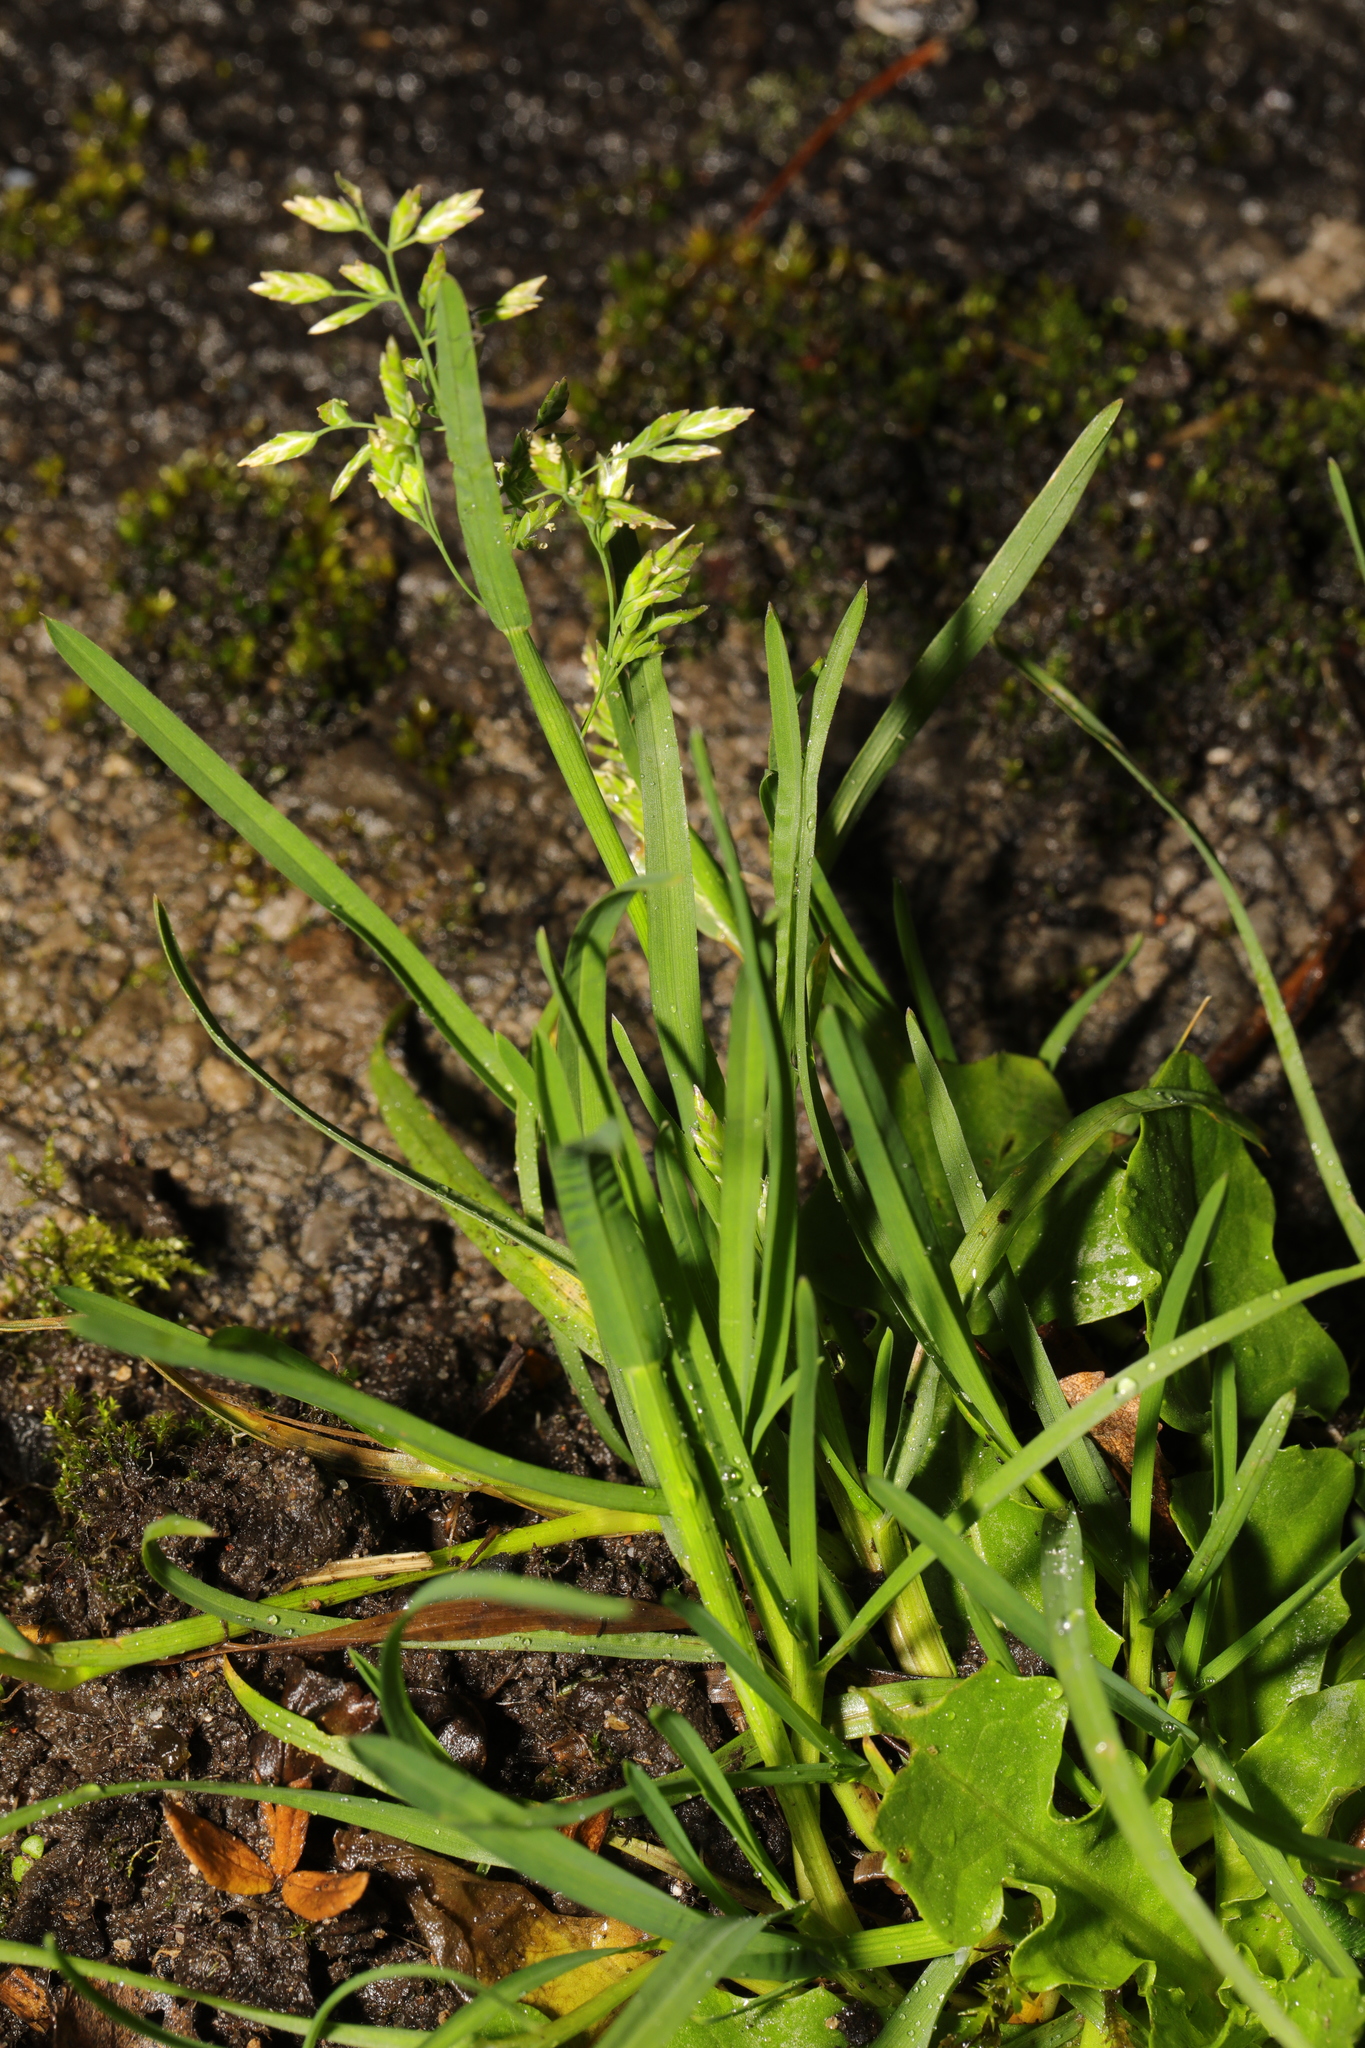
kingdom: Plantae
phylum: Tracheophyta
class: Liliopsida
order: Poales
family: Poaceae
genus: Poa
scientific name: Poa annua
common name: Annual bluegrass
